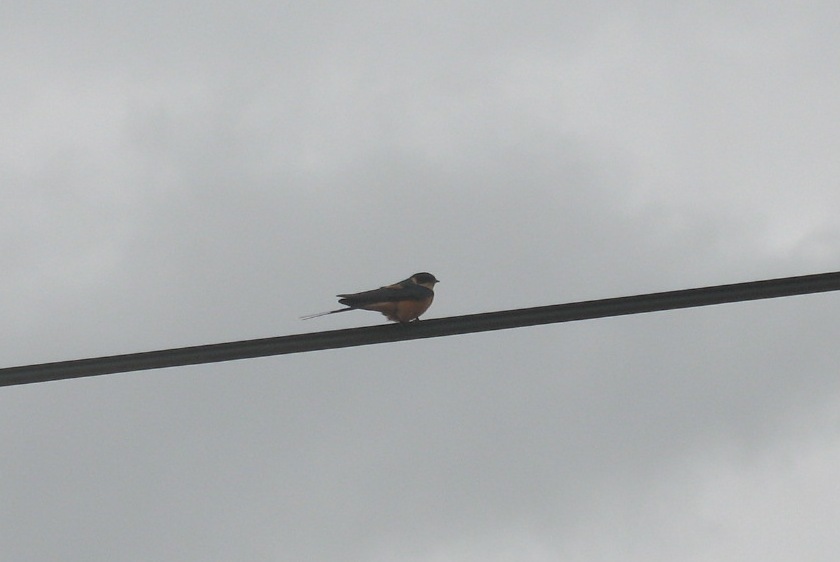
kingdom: Animalia
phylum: Chordata
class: Aves
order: Passeriformes
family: Hirundinidae
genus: Cecropis
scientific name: Cecropis semirufa
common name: Red-breasted swallow
